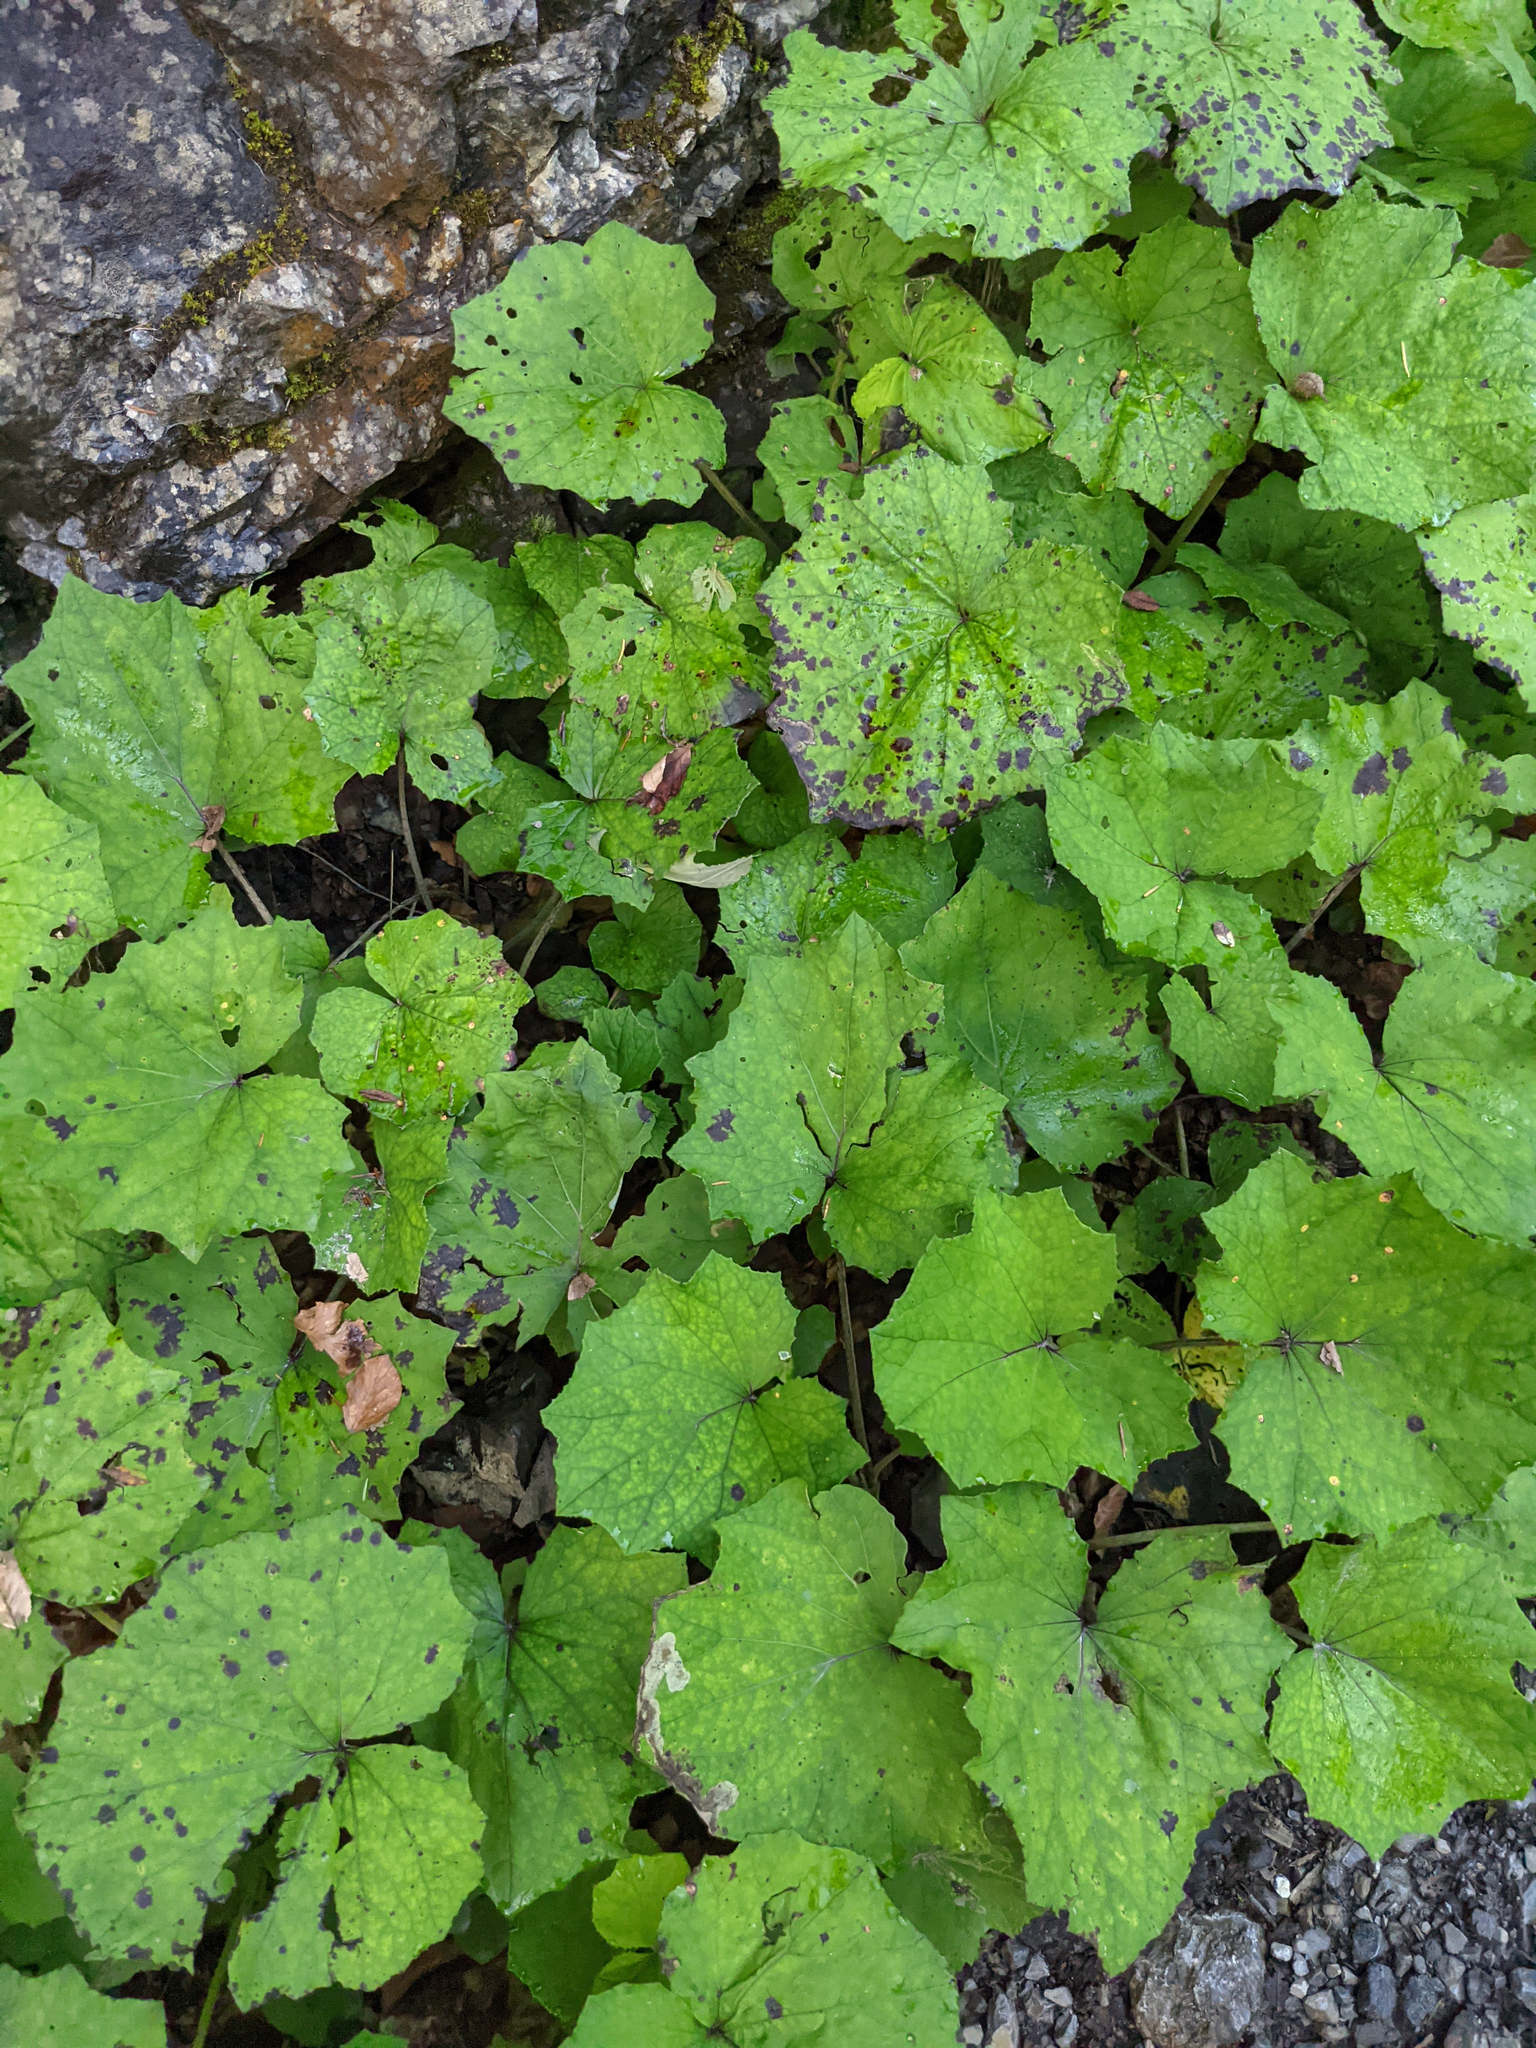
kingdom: Plantae
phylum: Tracheophyta
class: Magnoliopsida
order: Asterales
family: Asteraceae
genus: Tussilago
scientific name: Tussilago farfara
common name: Coltsfoot
